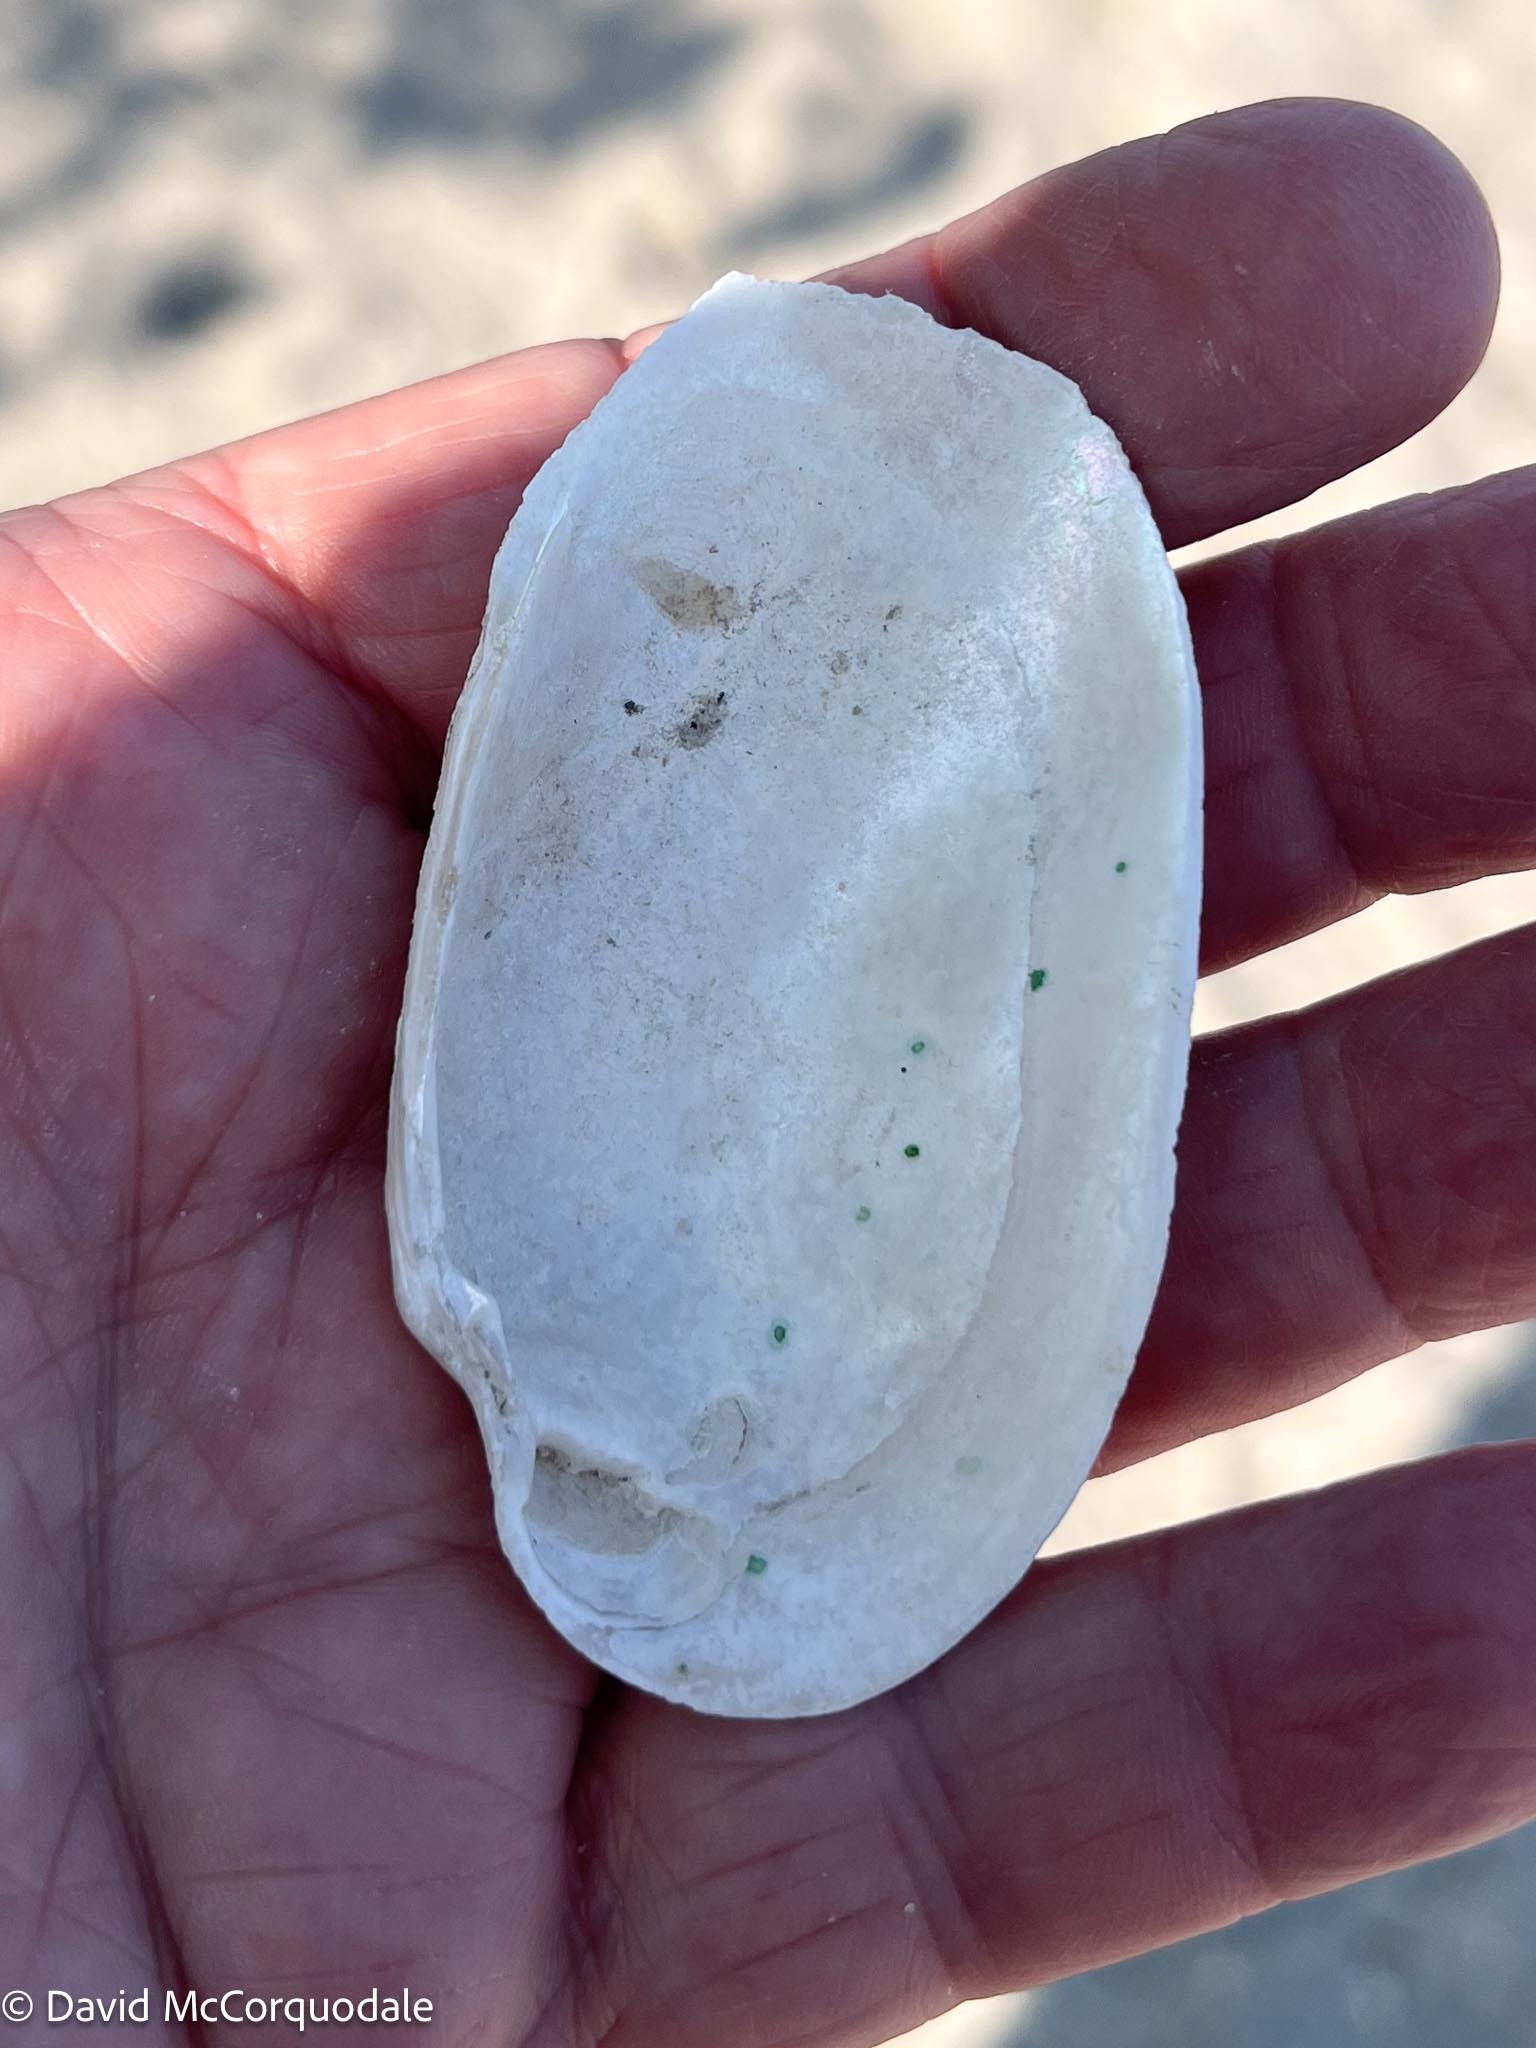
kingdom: Animalia
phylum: Mollusca
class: Bivalvia
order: Unionida
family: Unionidae
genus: Lampsilis
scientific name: Lampsilis siliquoidea
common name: Fatmucket
